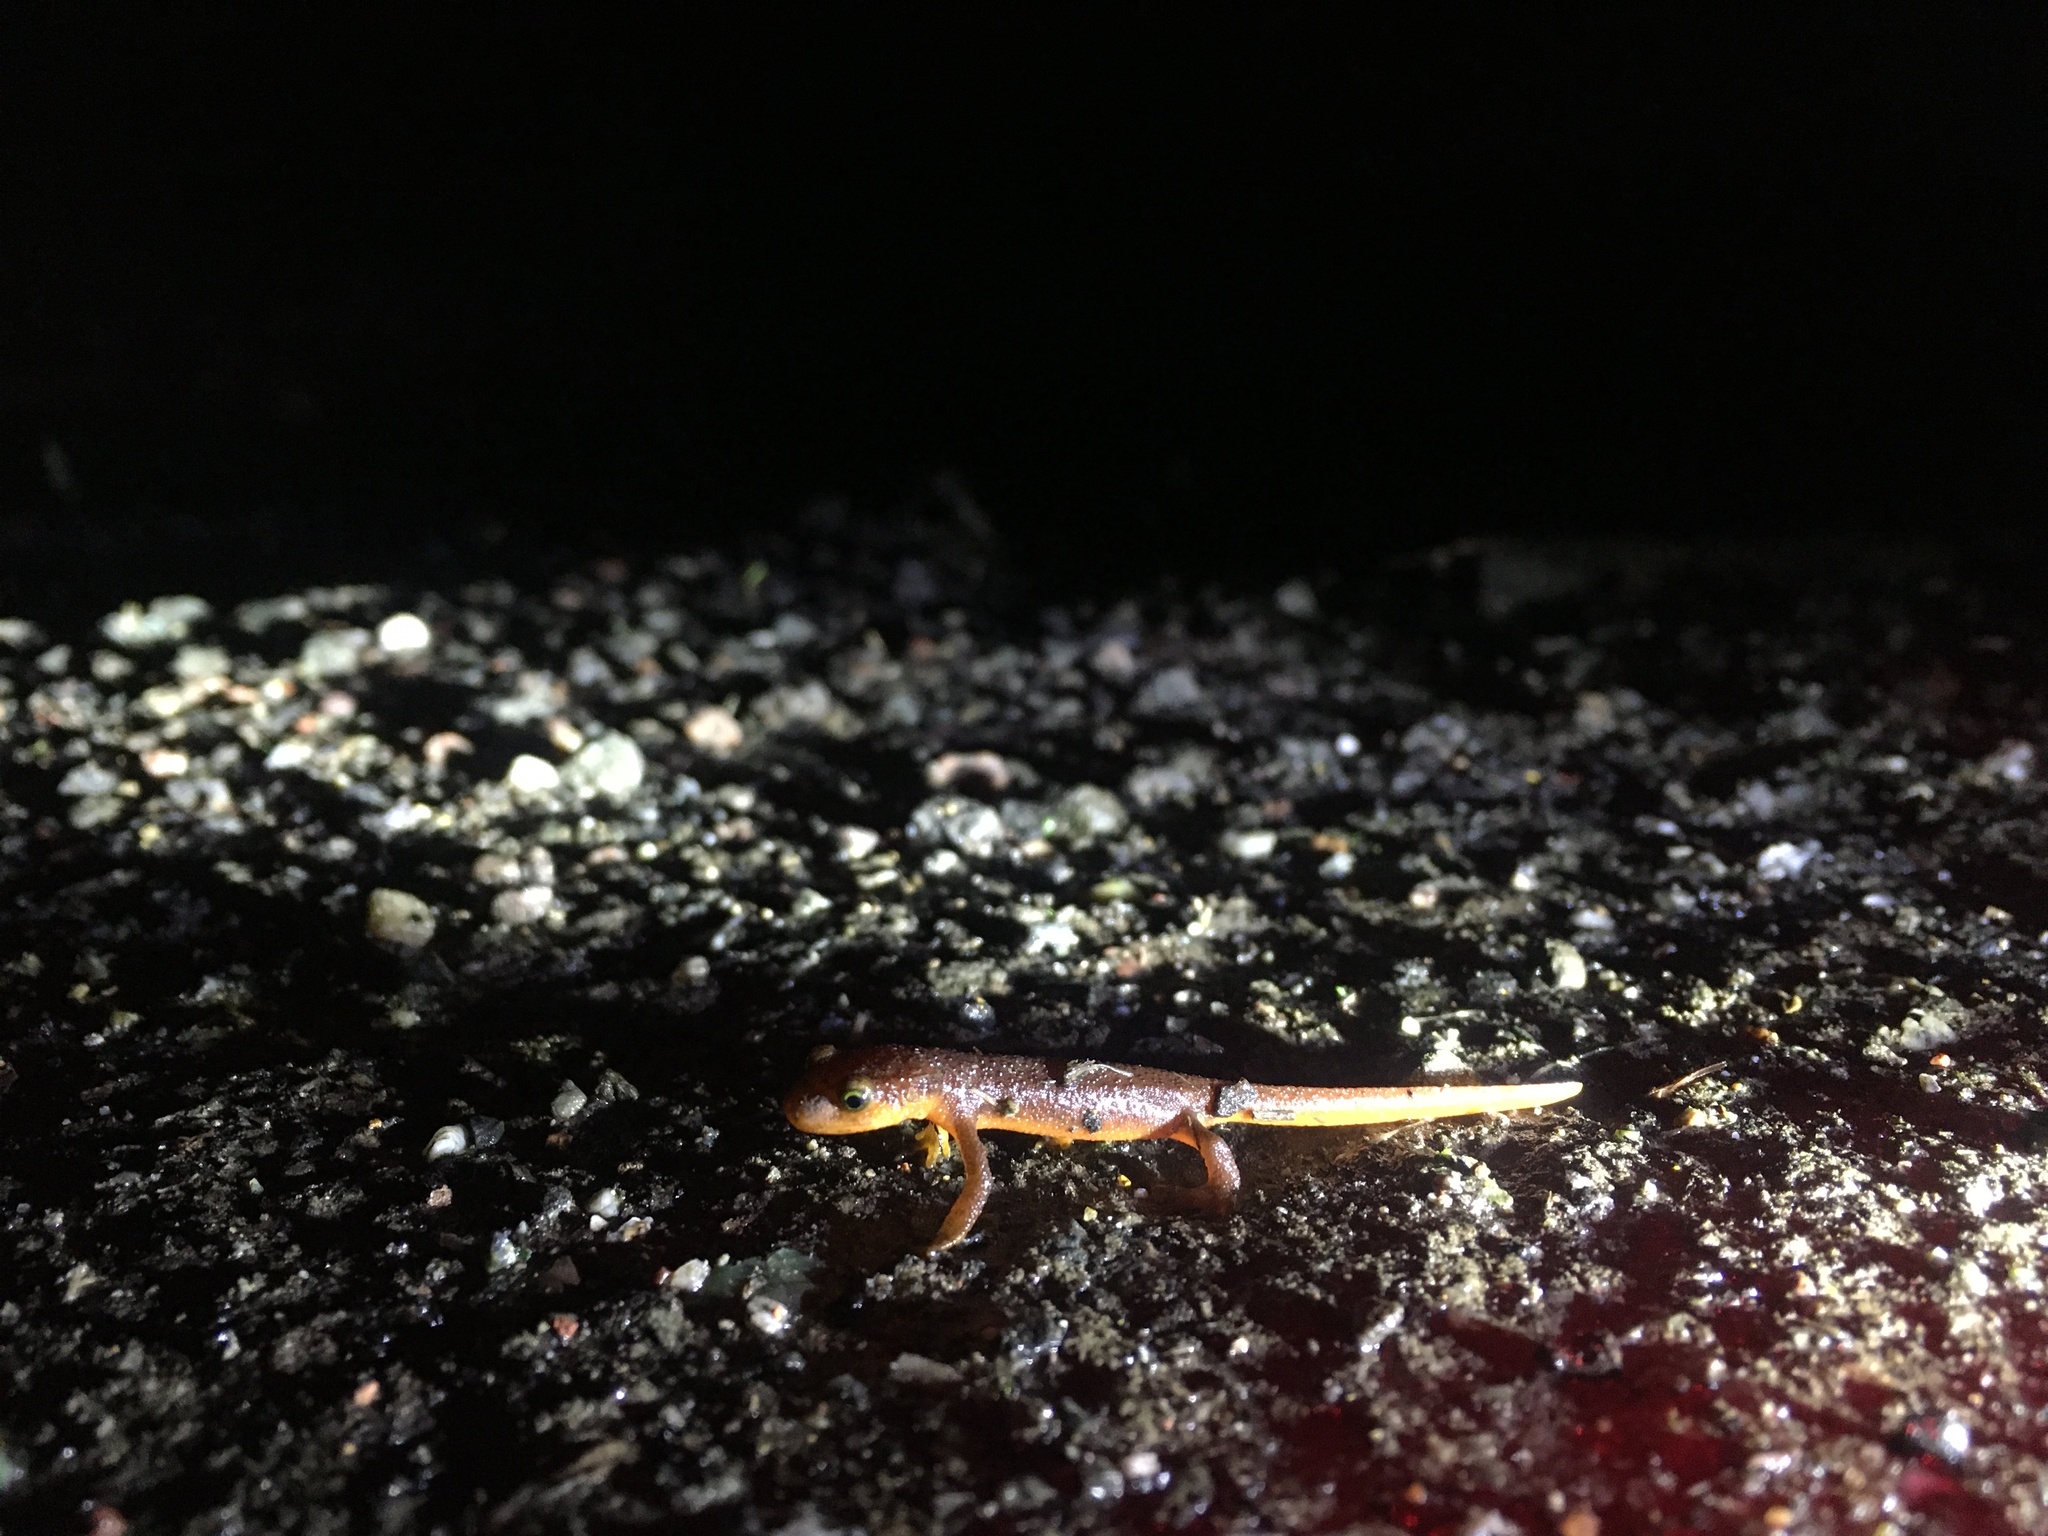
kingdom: Animalia
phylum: Chordata
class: Amphibia
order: Caudata
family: Salamandridae
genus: Taricha
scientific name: Taricha torosa
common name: California newt
